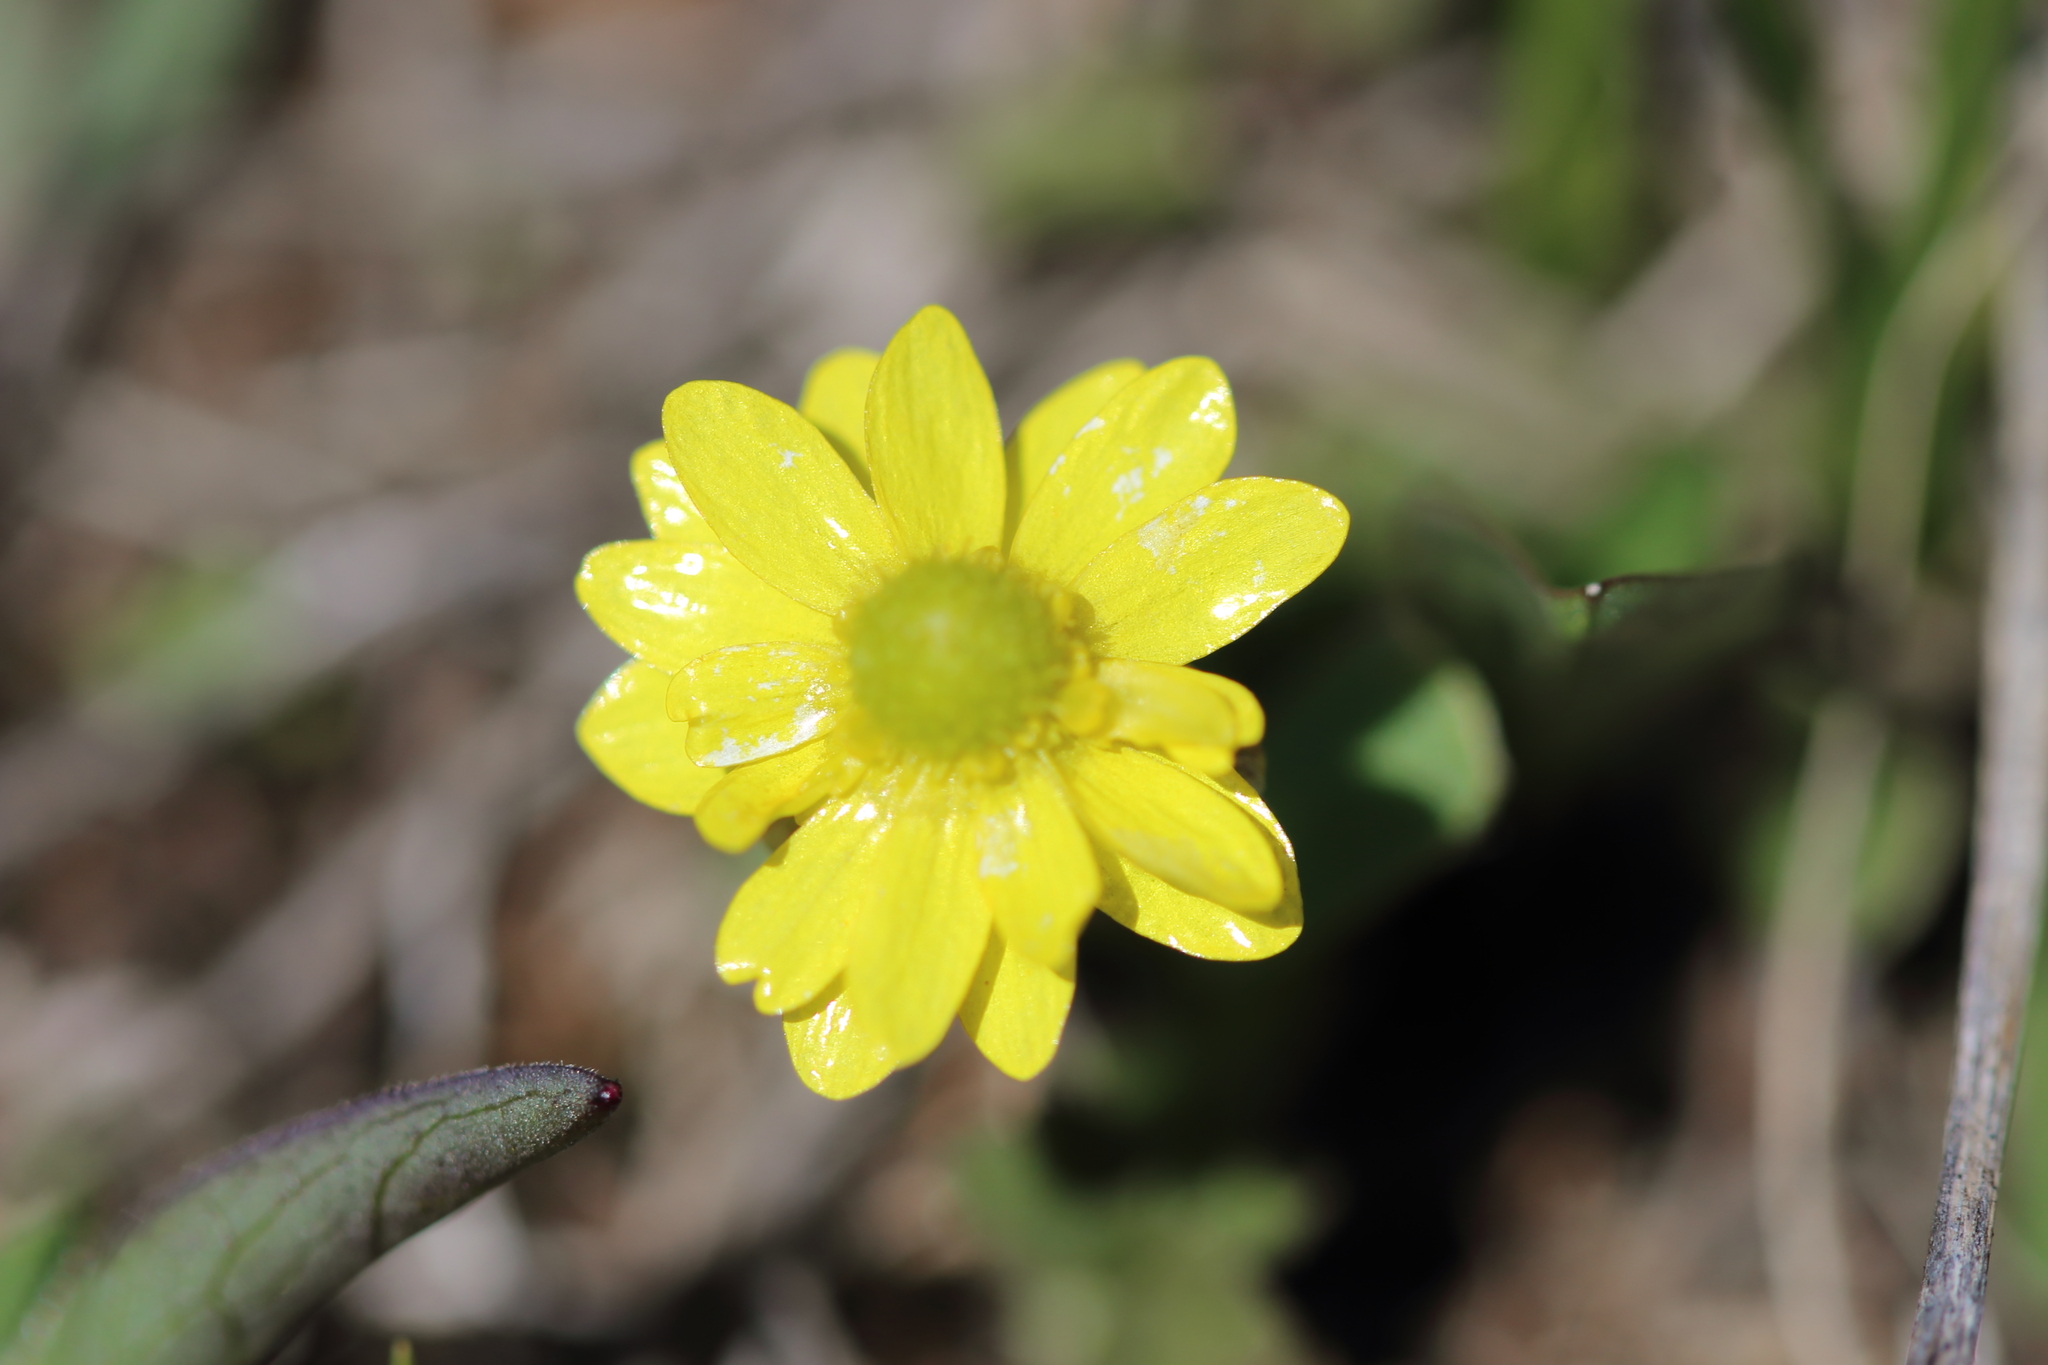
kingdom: Plantae
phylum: Tracheophyta
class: Magnoliopsida
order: Ranunculales
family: Ranunculaceae
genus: Ranunculus
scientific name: Ranunculus glaberrimus
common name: Sagebrush buttercup
